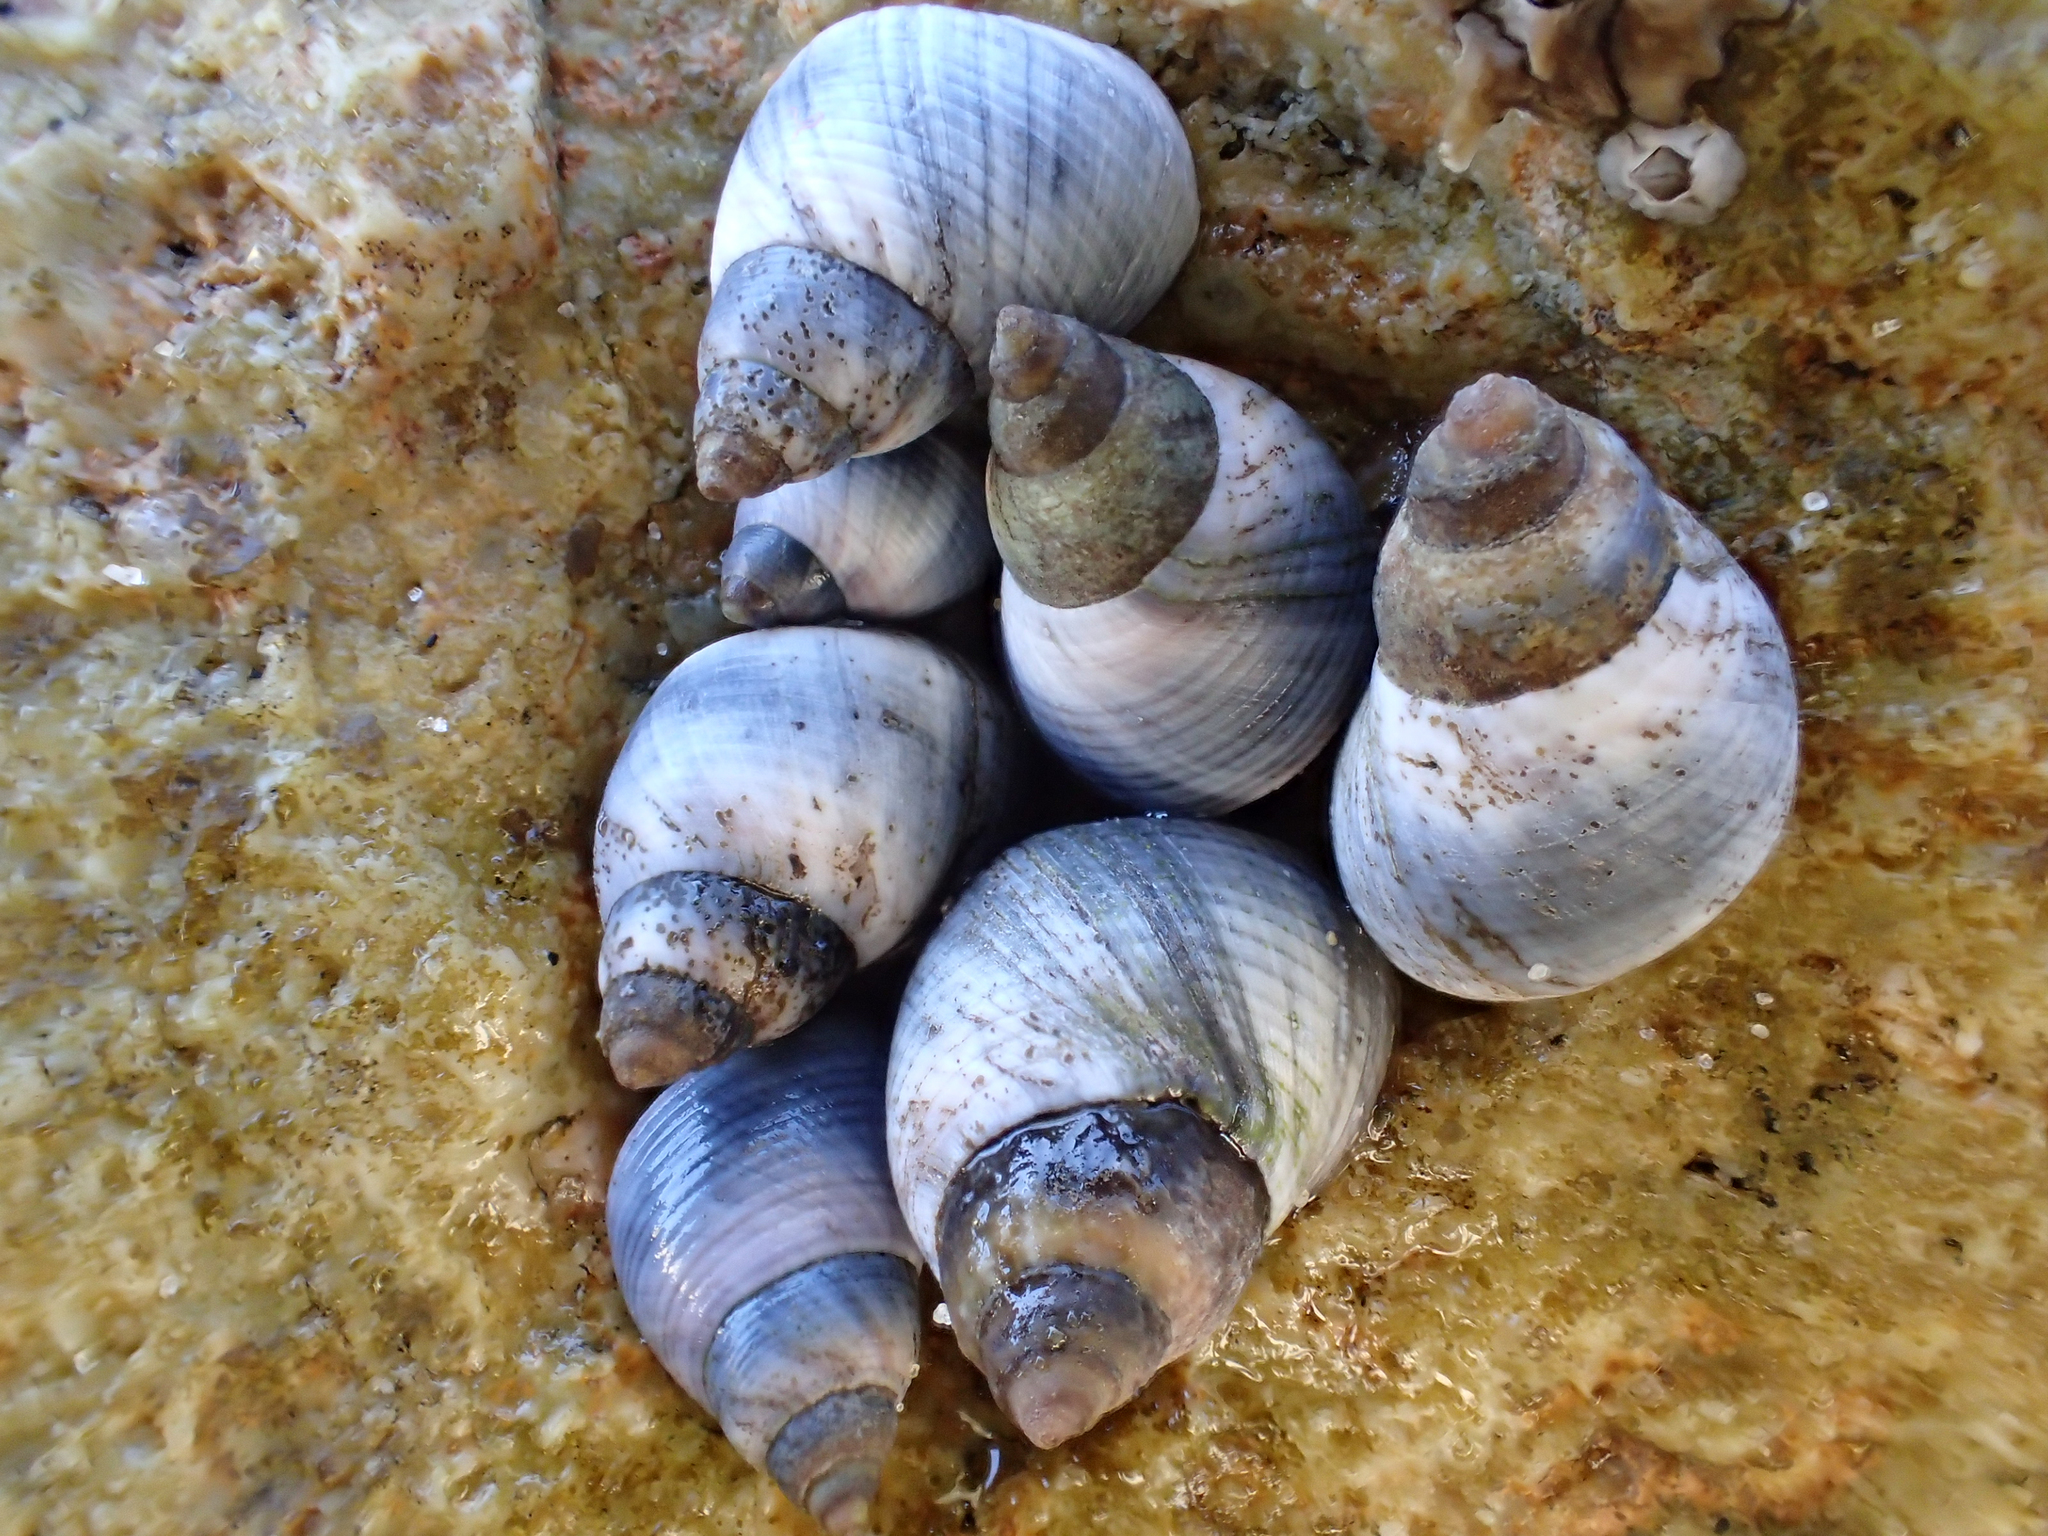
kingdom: Animalia
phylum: Mollusca
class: Gastropoda
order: Littorinimorpha
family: Littorinidae
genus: Austrolittorina
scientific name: Austrolittorina unifasciata
